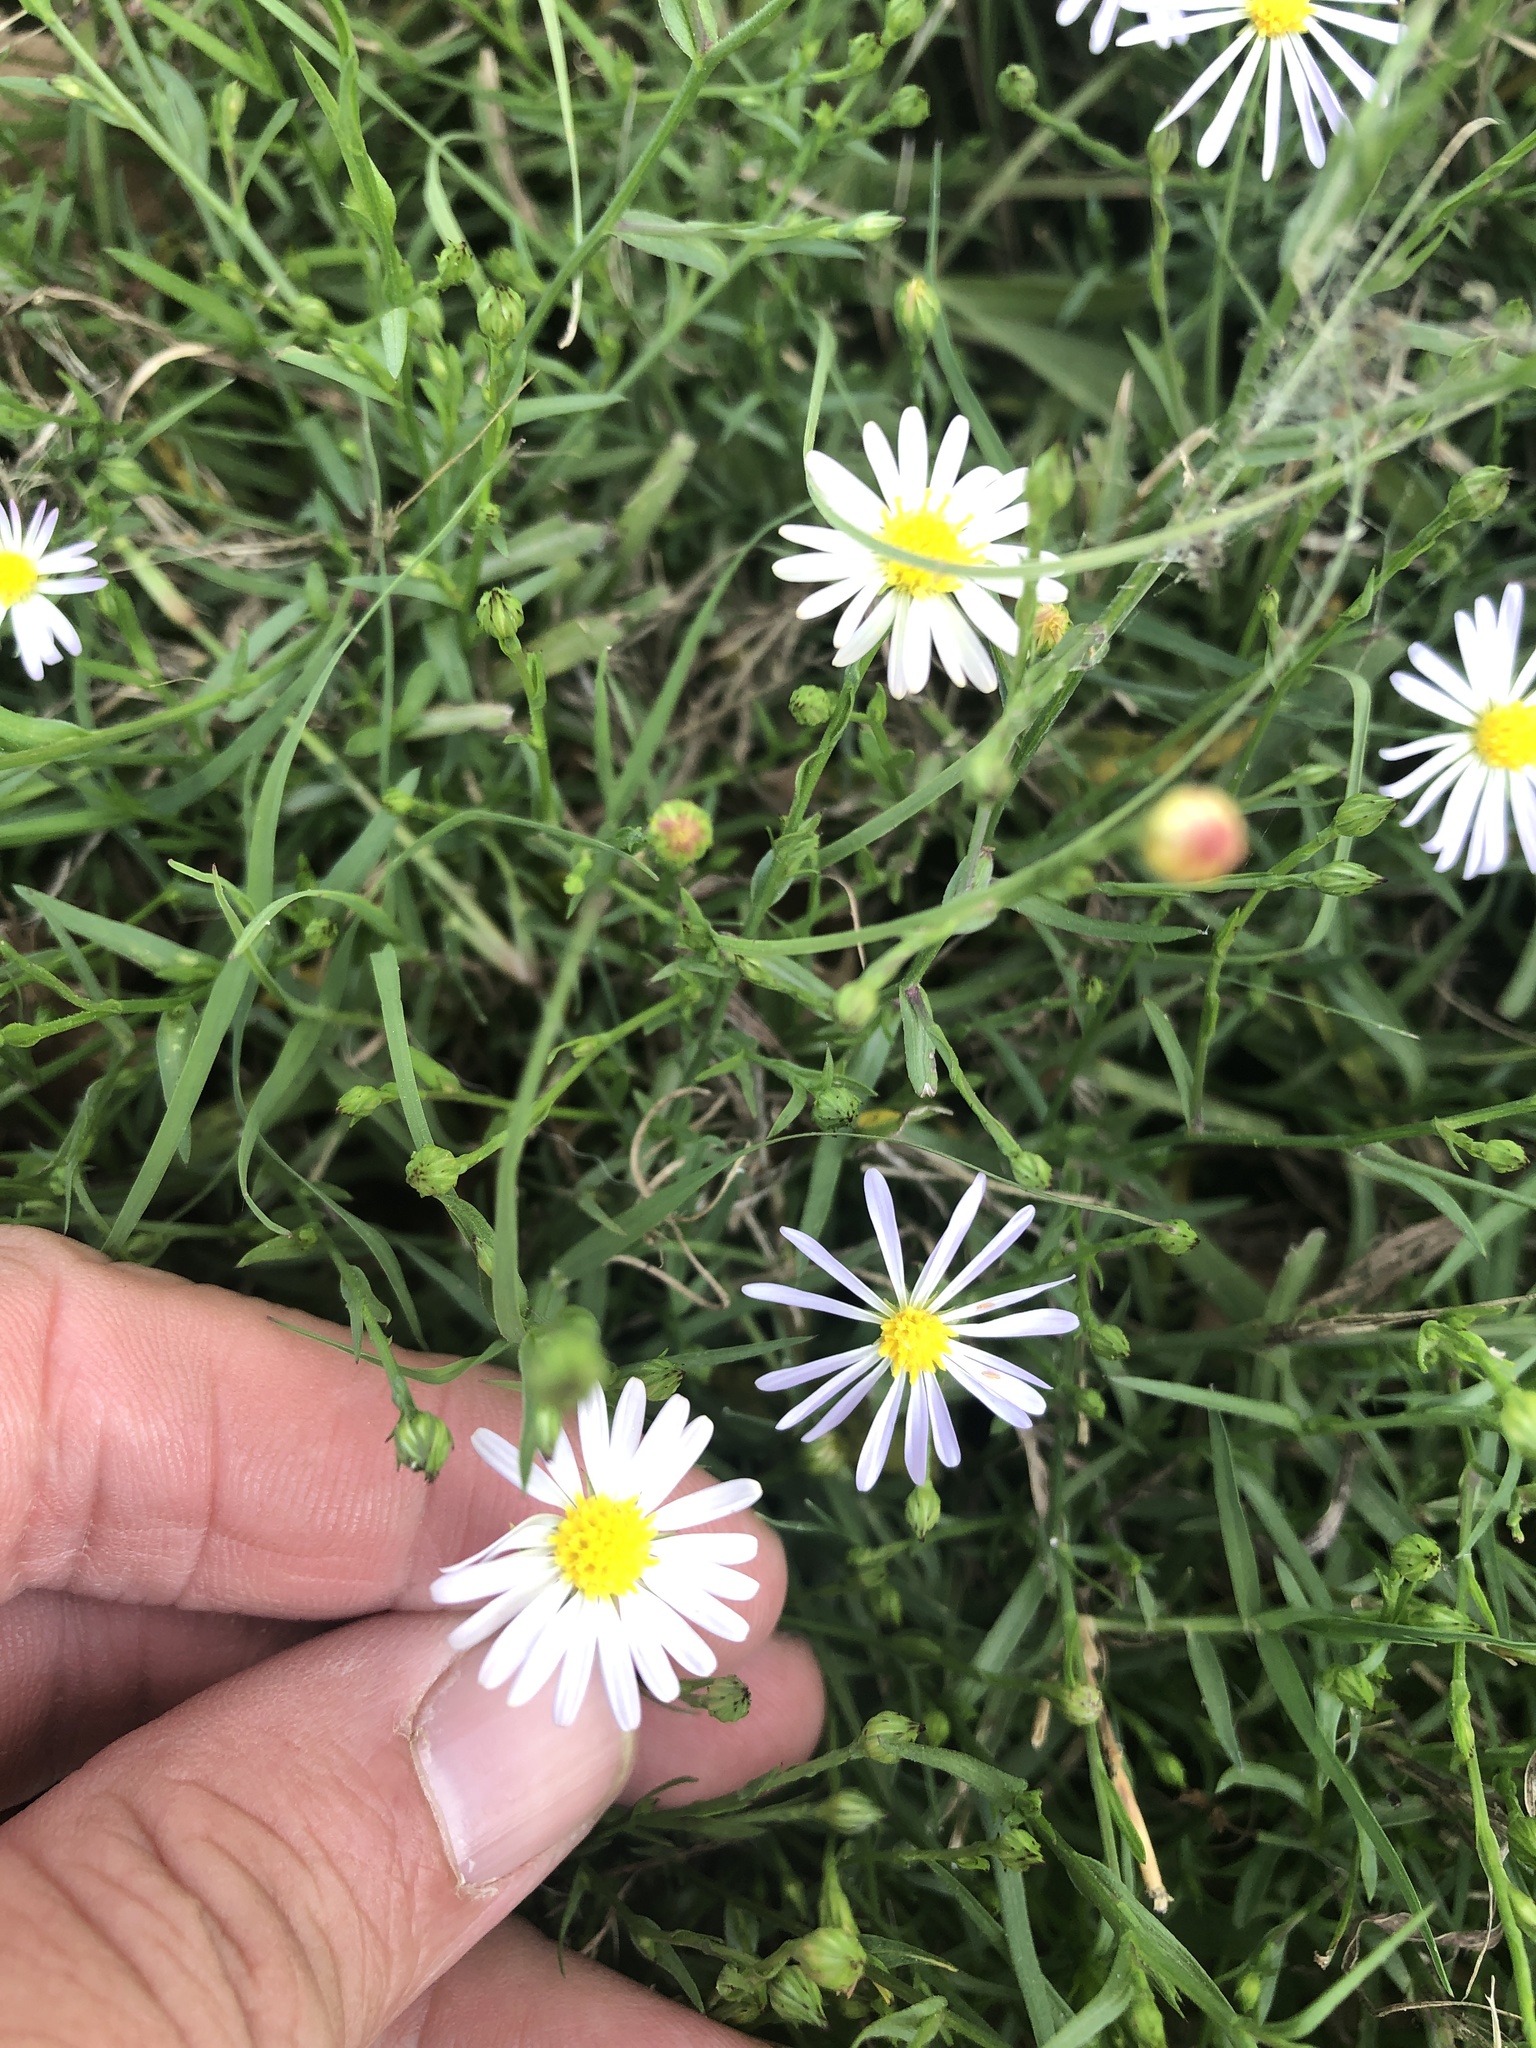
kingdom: Plantae
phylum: Tracheophyta
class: Magnoliopsida
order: Asterales
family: Asteraceae
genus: Symphyotrichum
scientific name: Symphyotrichum divaricatum
